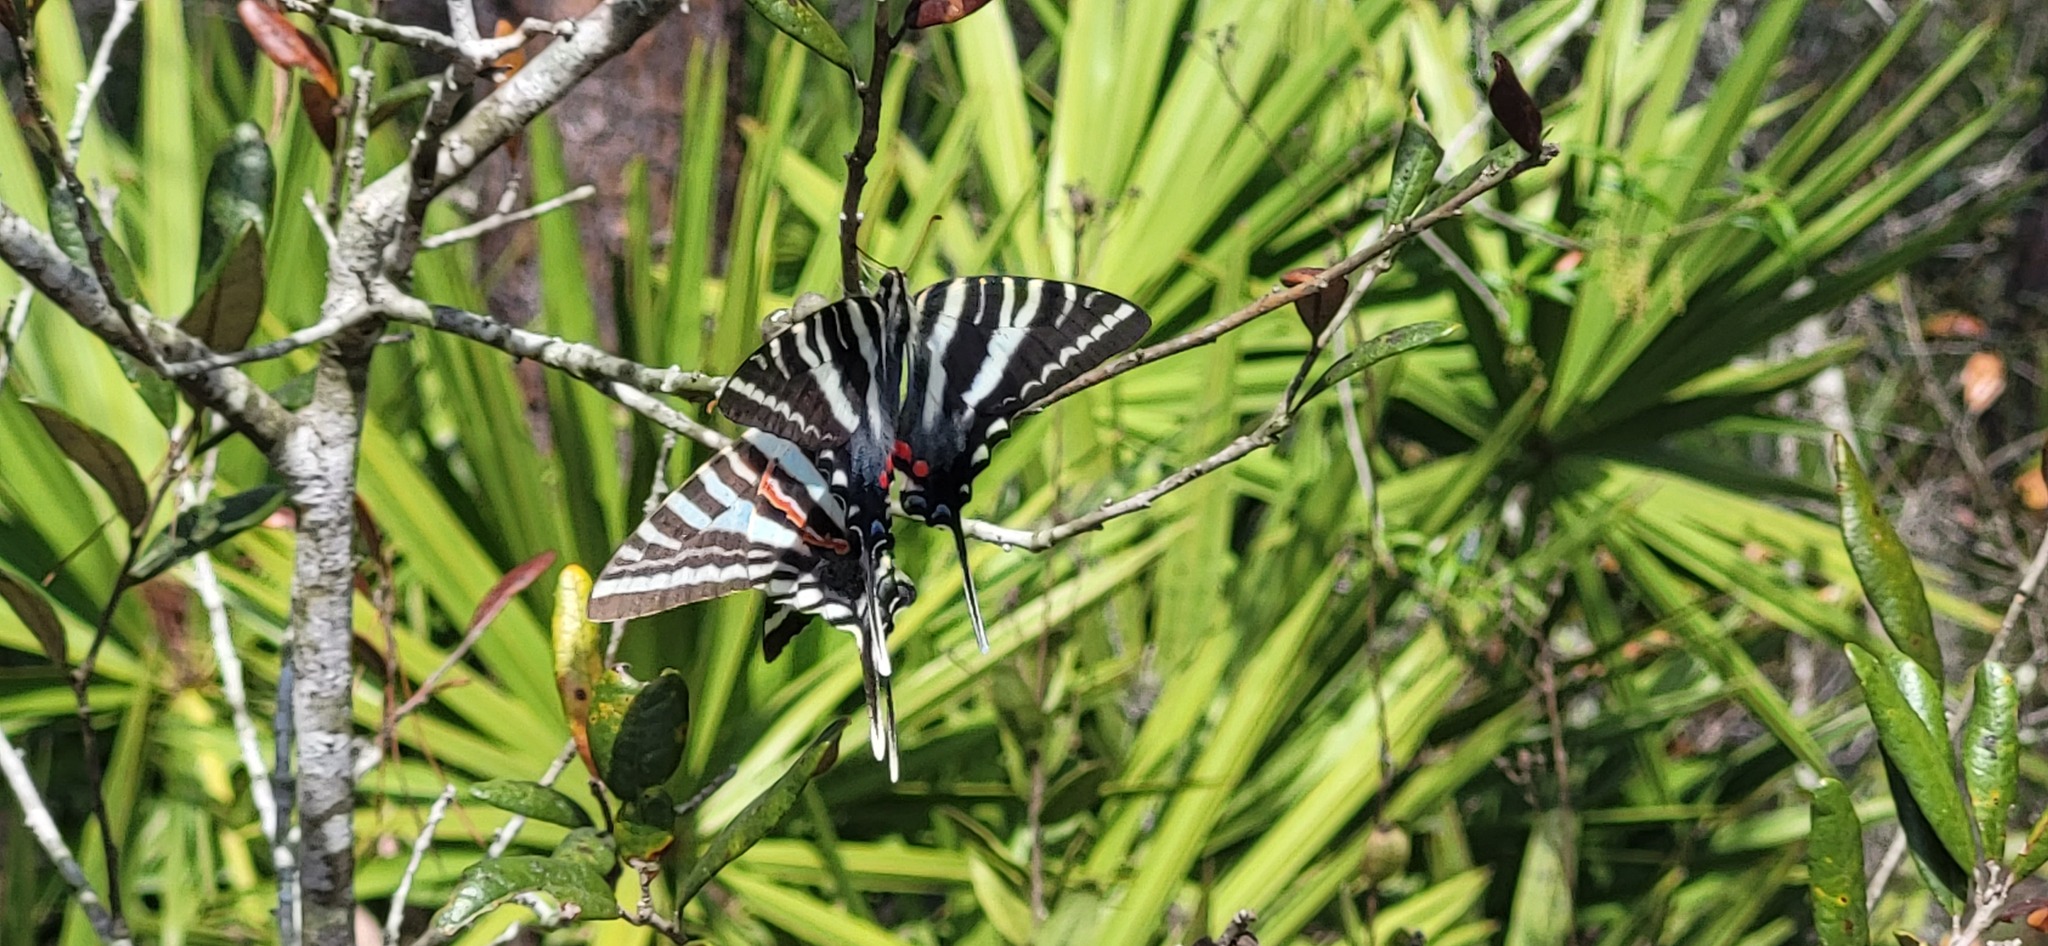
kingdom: Animalia
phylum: Arthropoda
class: Insecta
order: Lepidoptera
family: Papilionidae
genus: Protographium
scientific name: Protographium marcellus
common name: Zebra swallowtail
